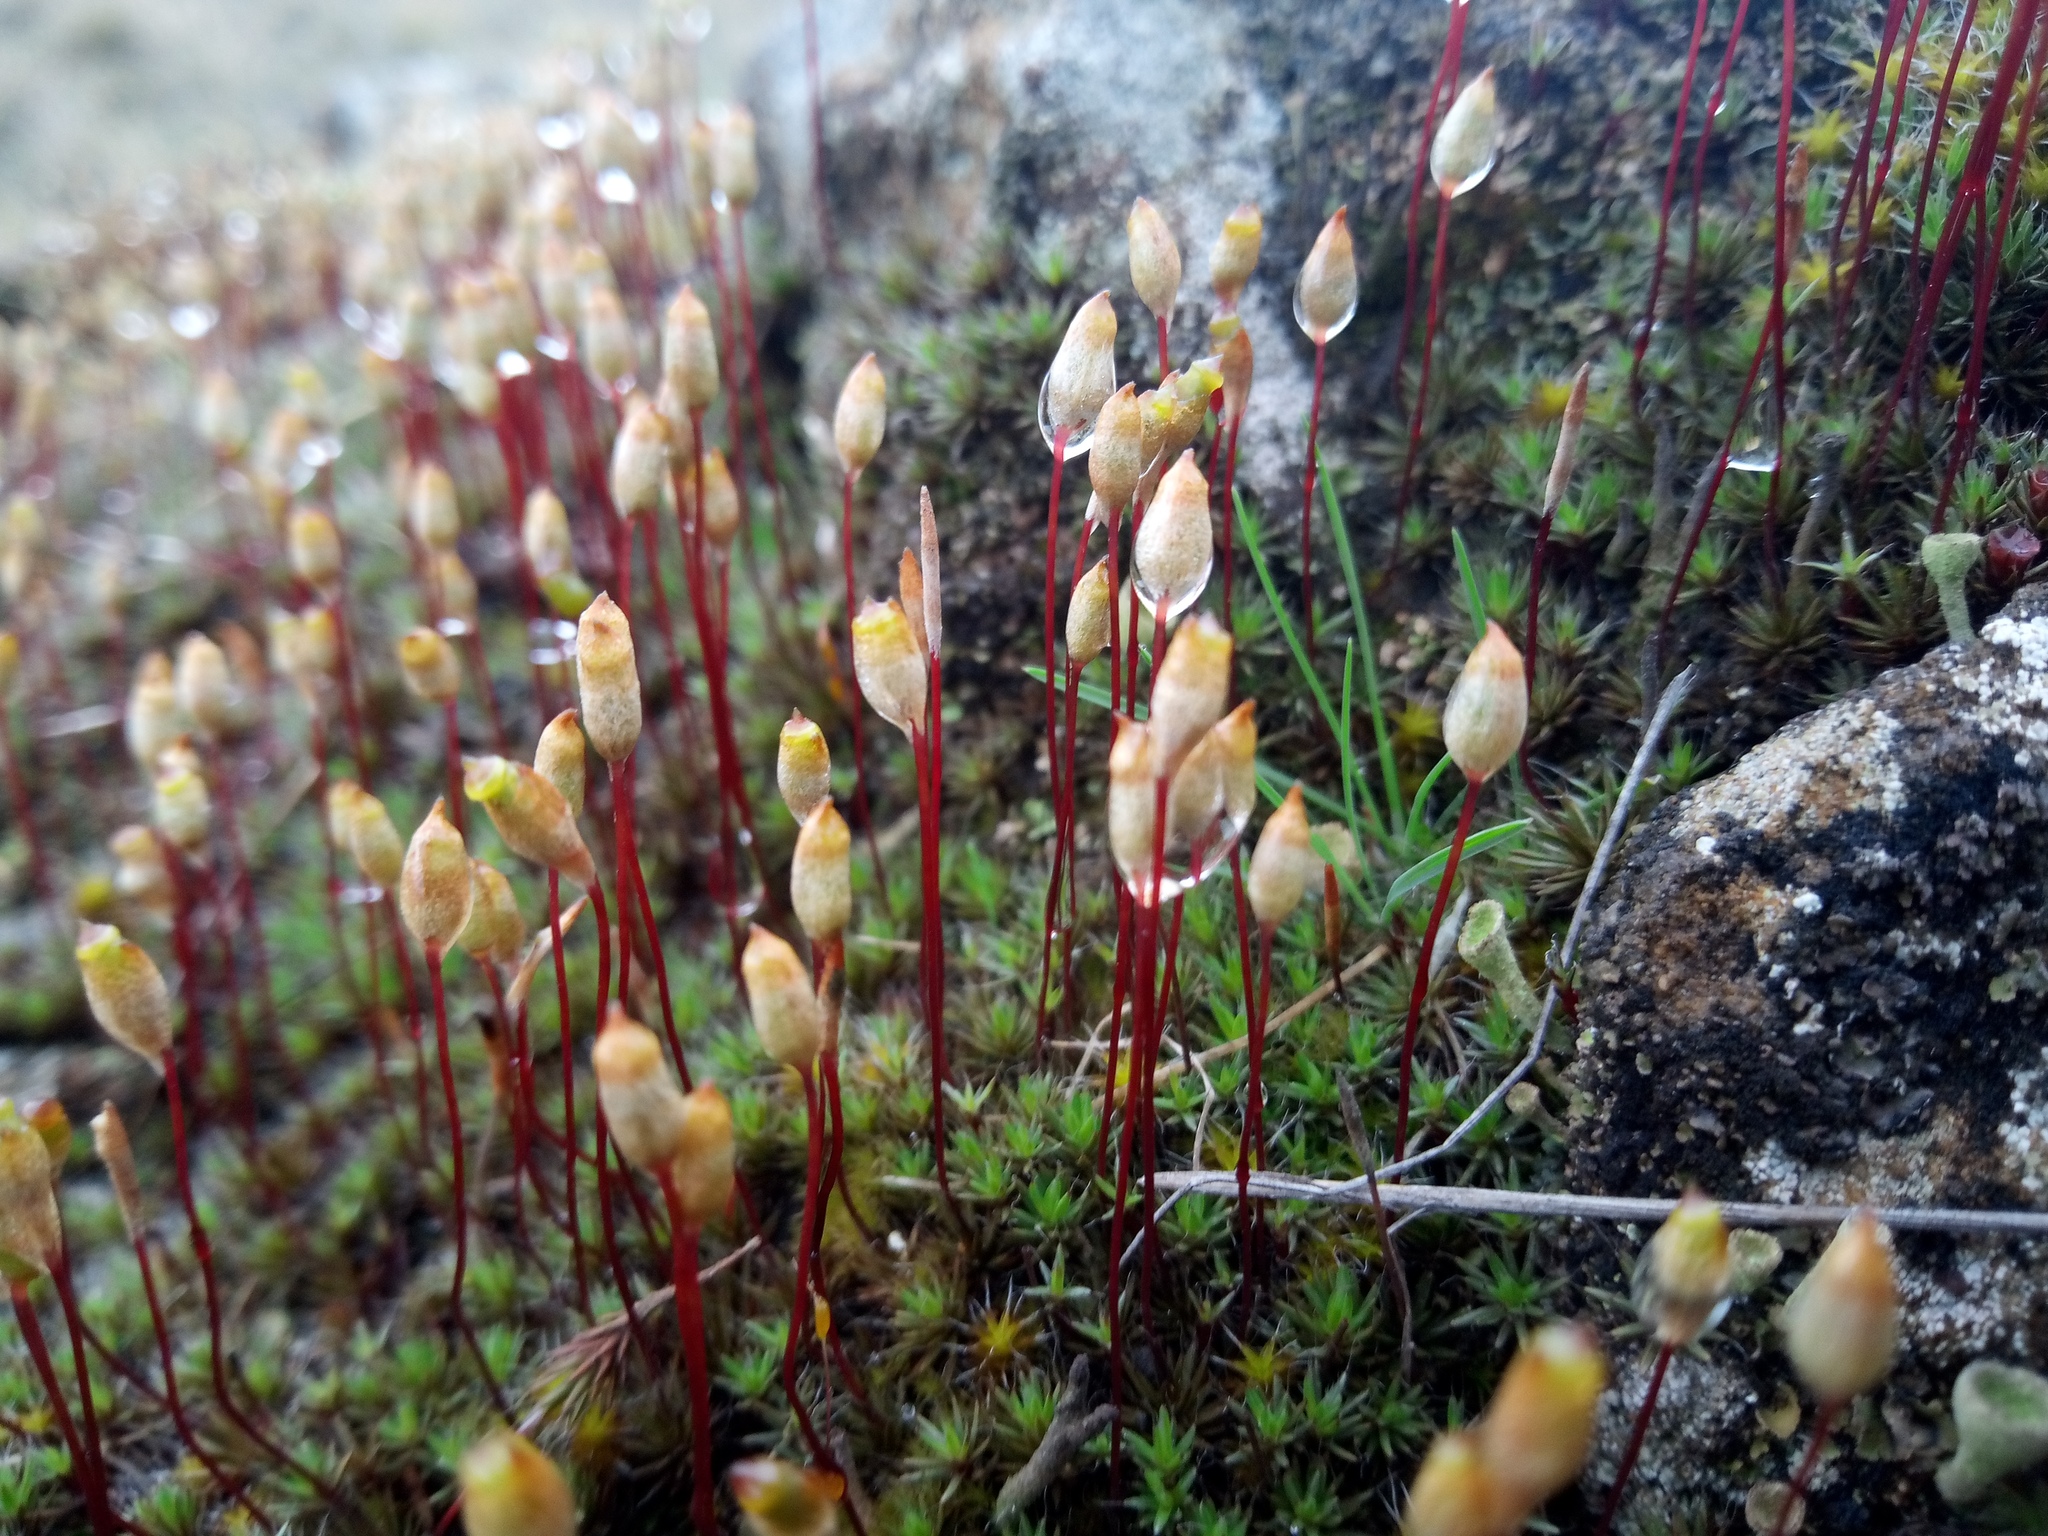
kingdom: Plantae
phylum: Bryophyta
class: Polytrichopsida
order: Polytrichales
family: Polytrichaceae
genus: Polytrichum
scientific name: Polytrichum piliferum
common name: Bristly haircap
